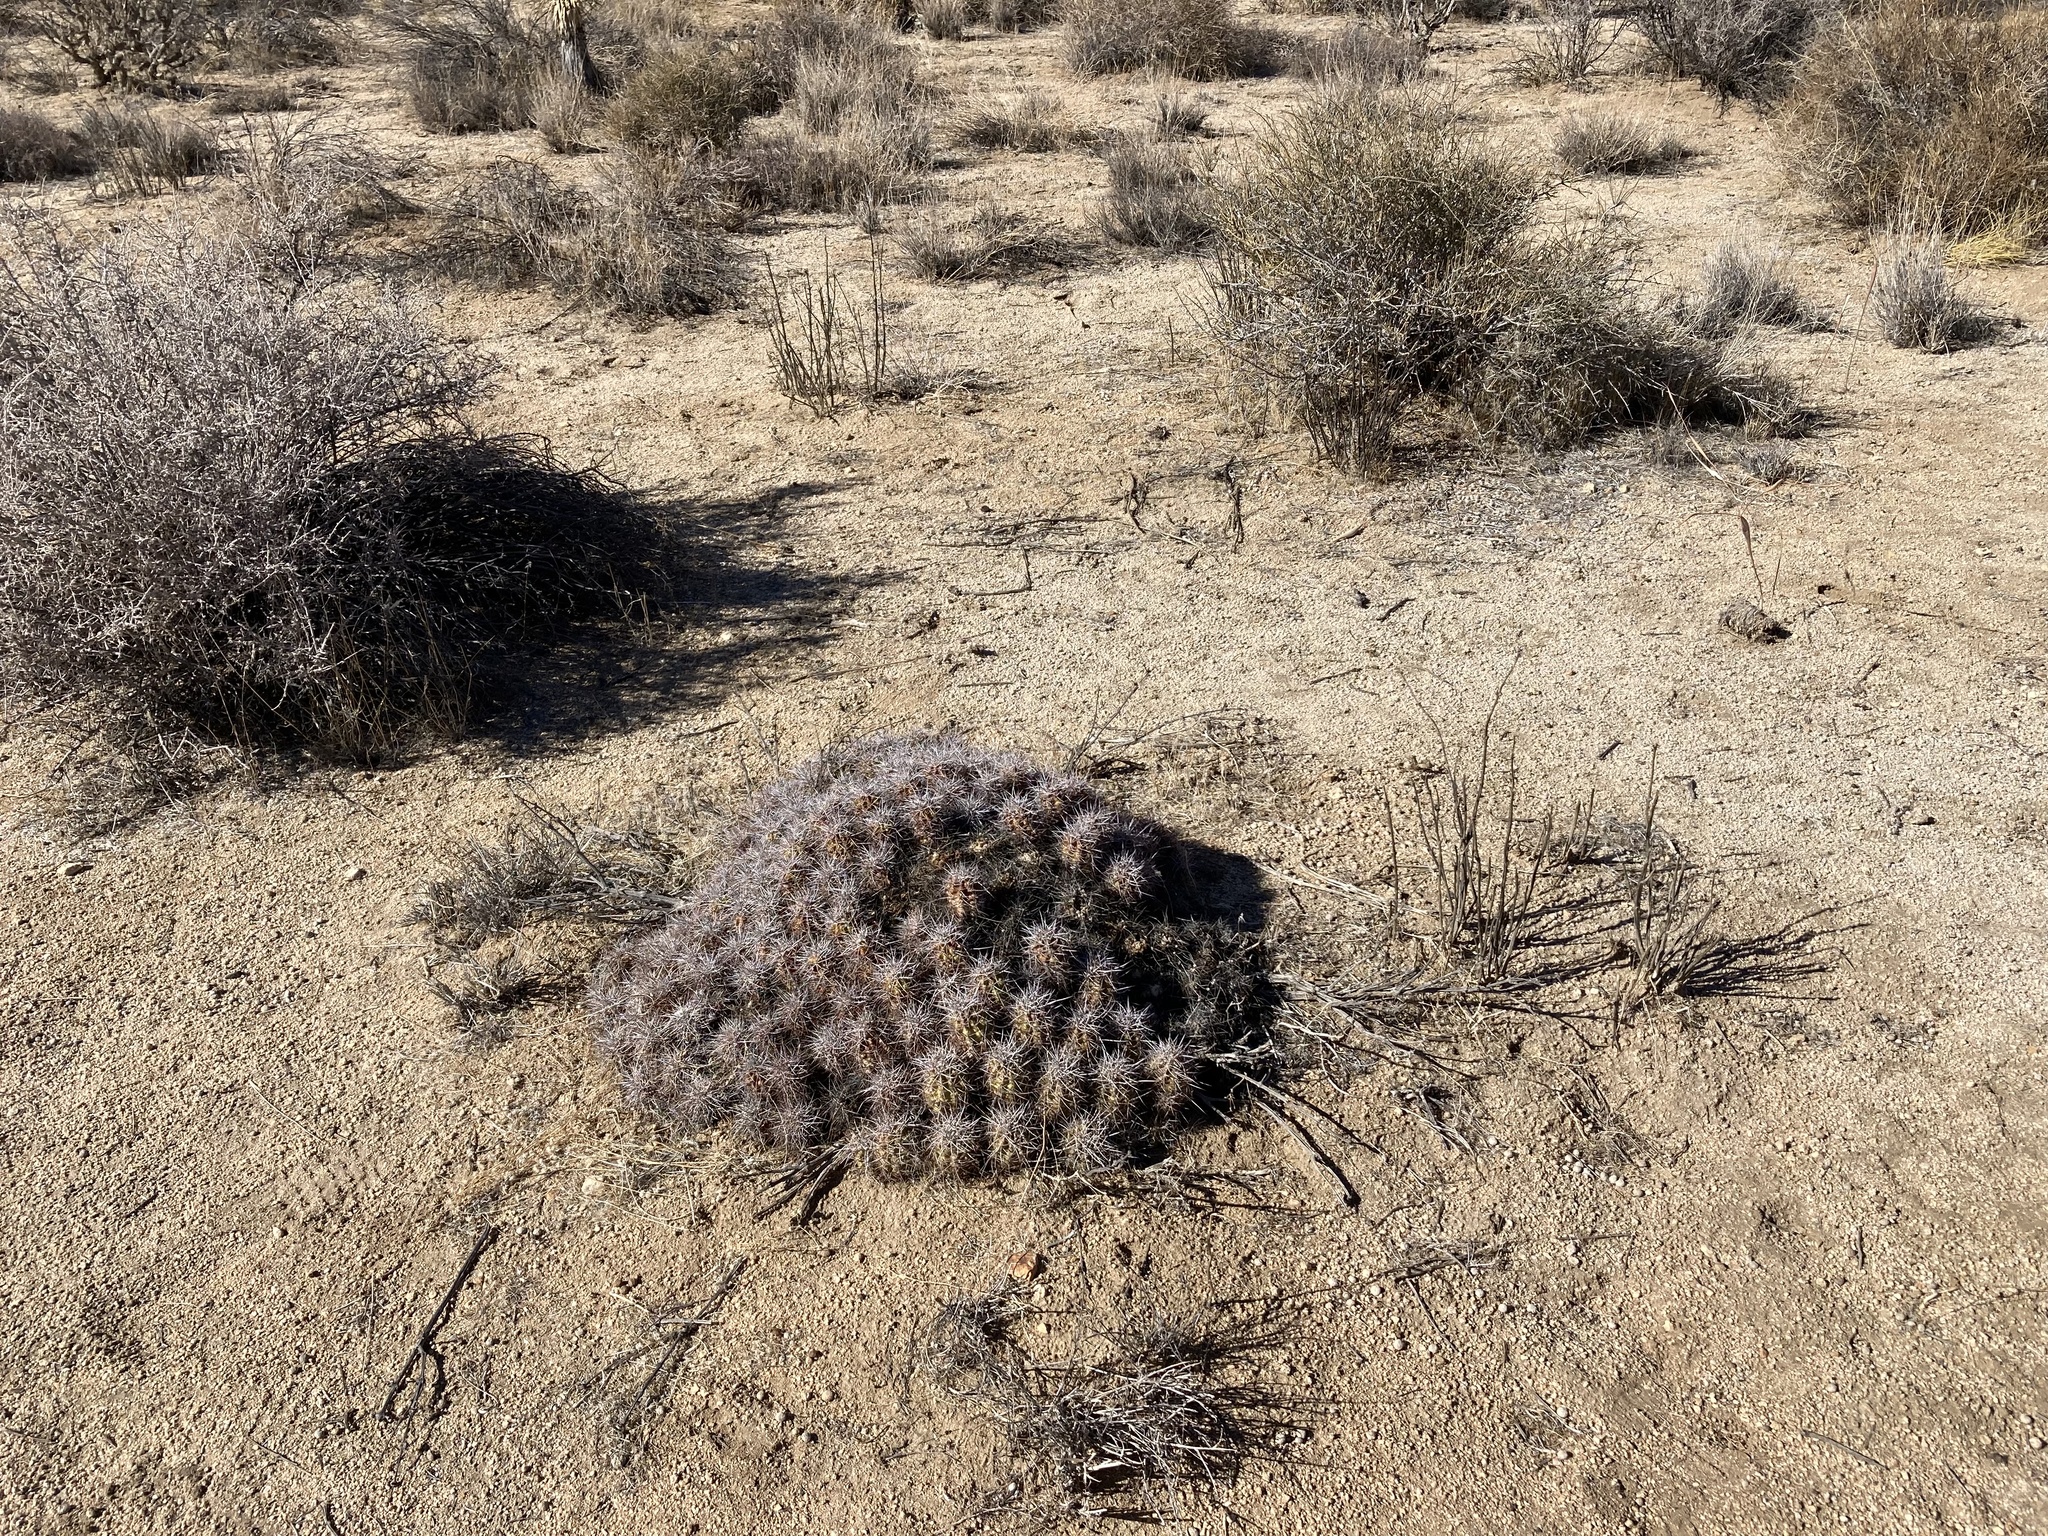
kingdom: Plantae
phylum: Tracheophyta
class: Magnoliopsida
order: Caryophyllales
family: Cactaceae
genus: Echinocereus
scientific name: Echinocereus triglochidiatus
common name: Claretcup hedgehog
